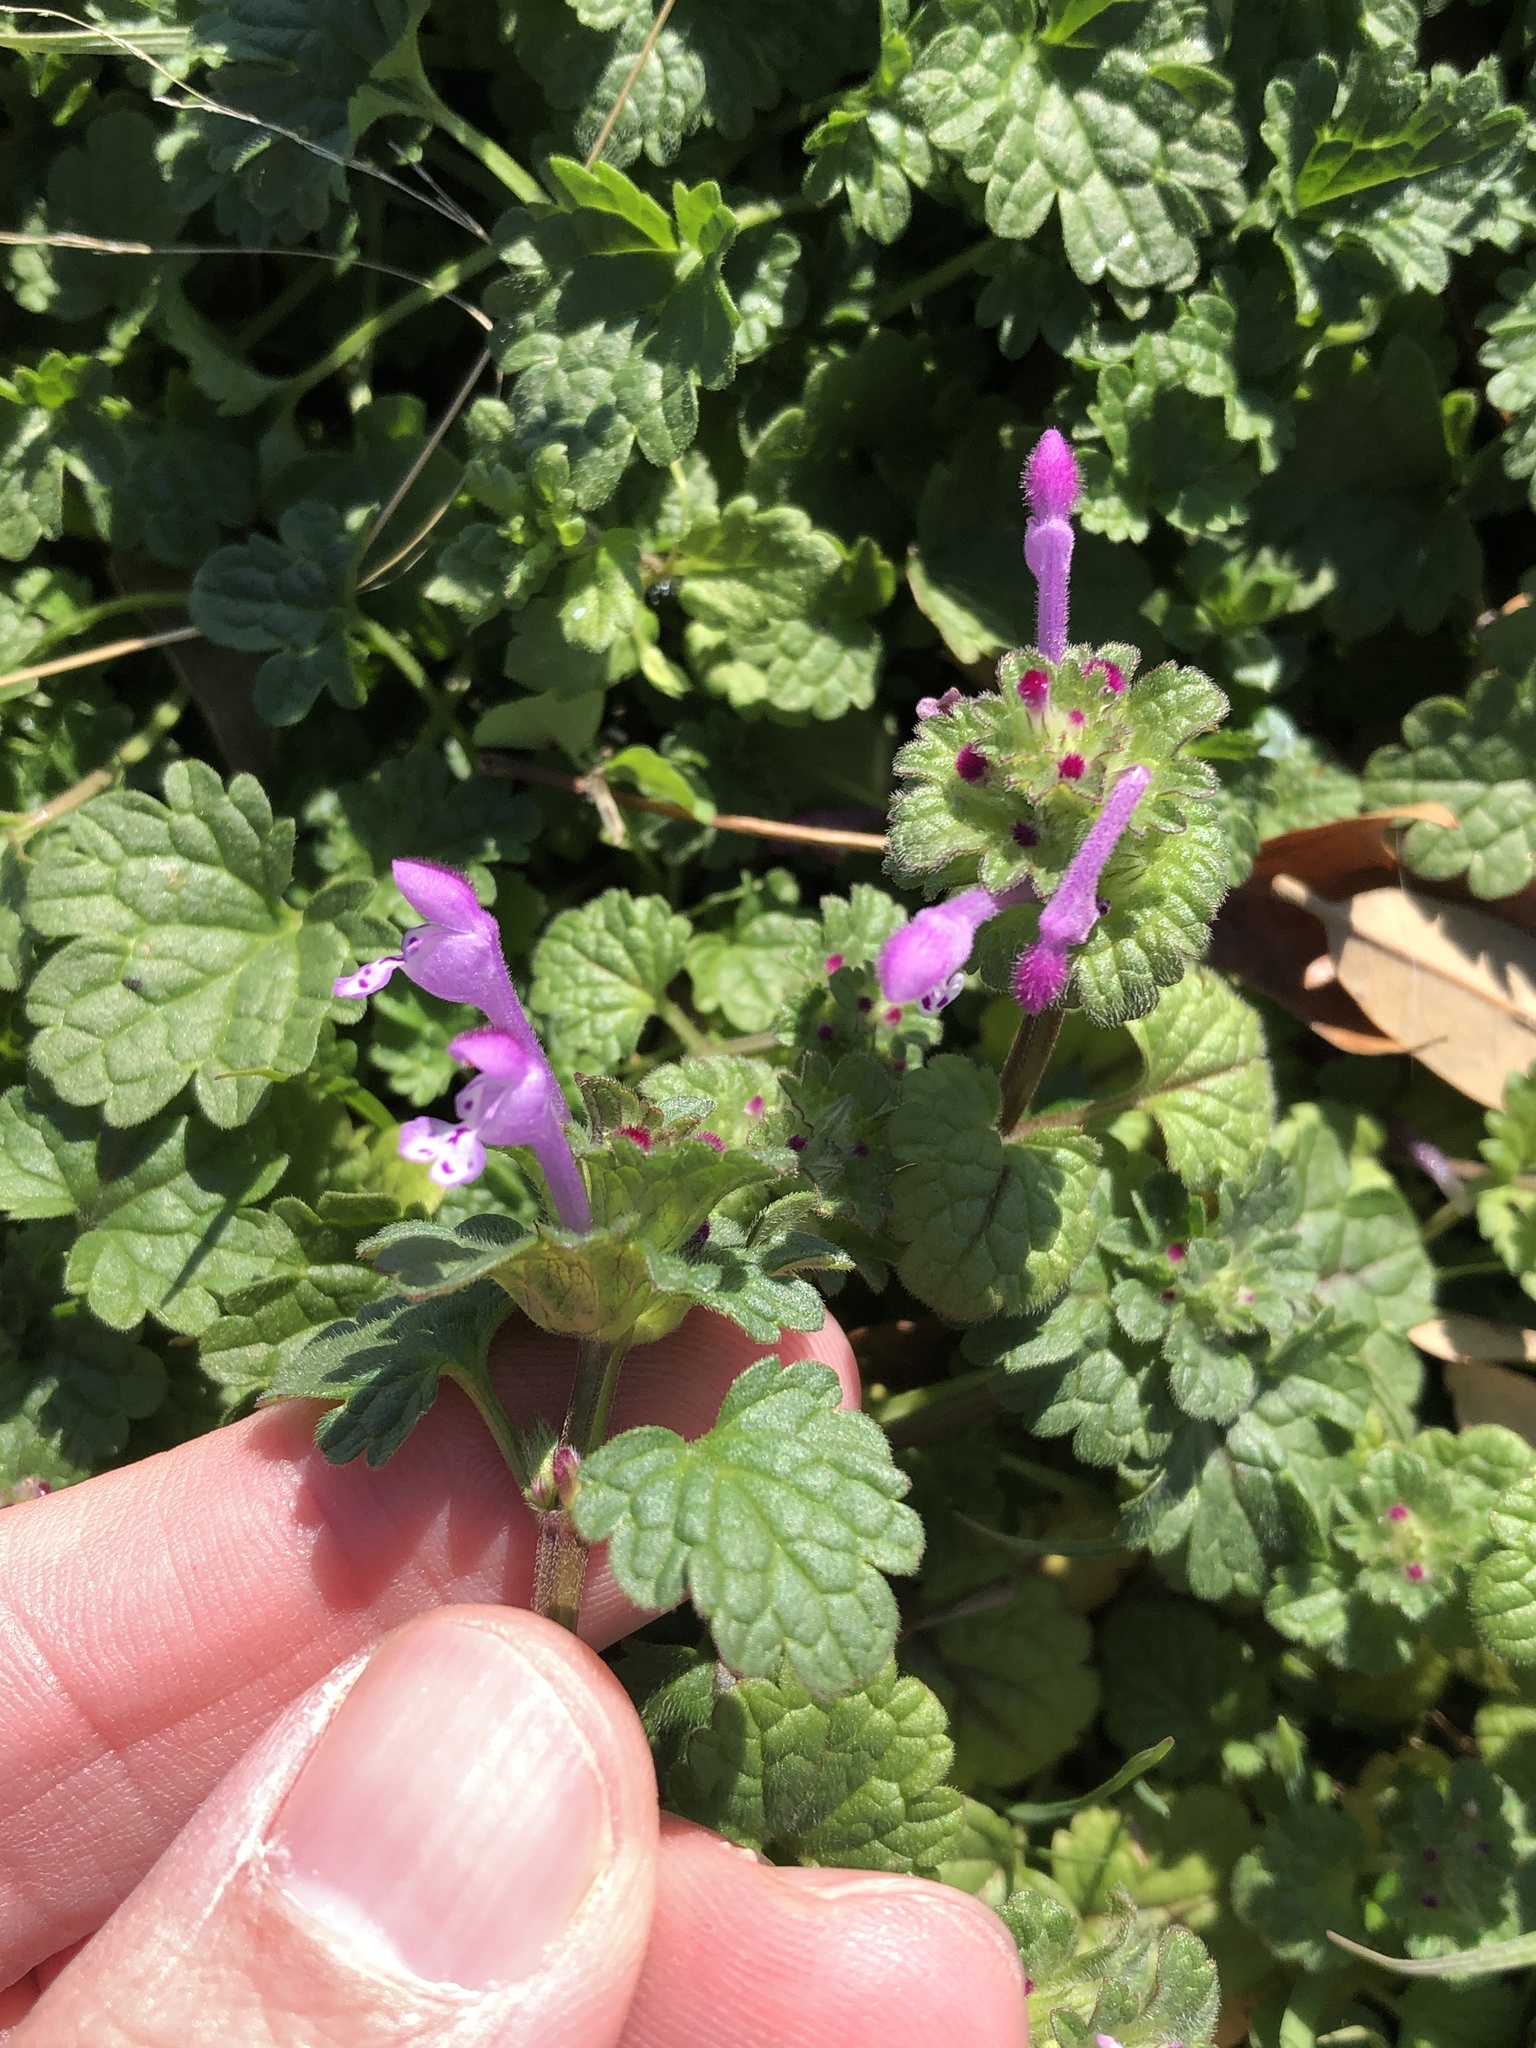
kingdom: Plantae
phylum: Tracheophyta
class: Magnoliopsida
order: Lamiales
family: Lamiaceae
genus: Lamium
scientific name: Lamium amplexicaule
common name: Henbit dead-nettle
